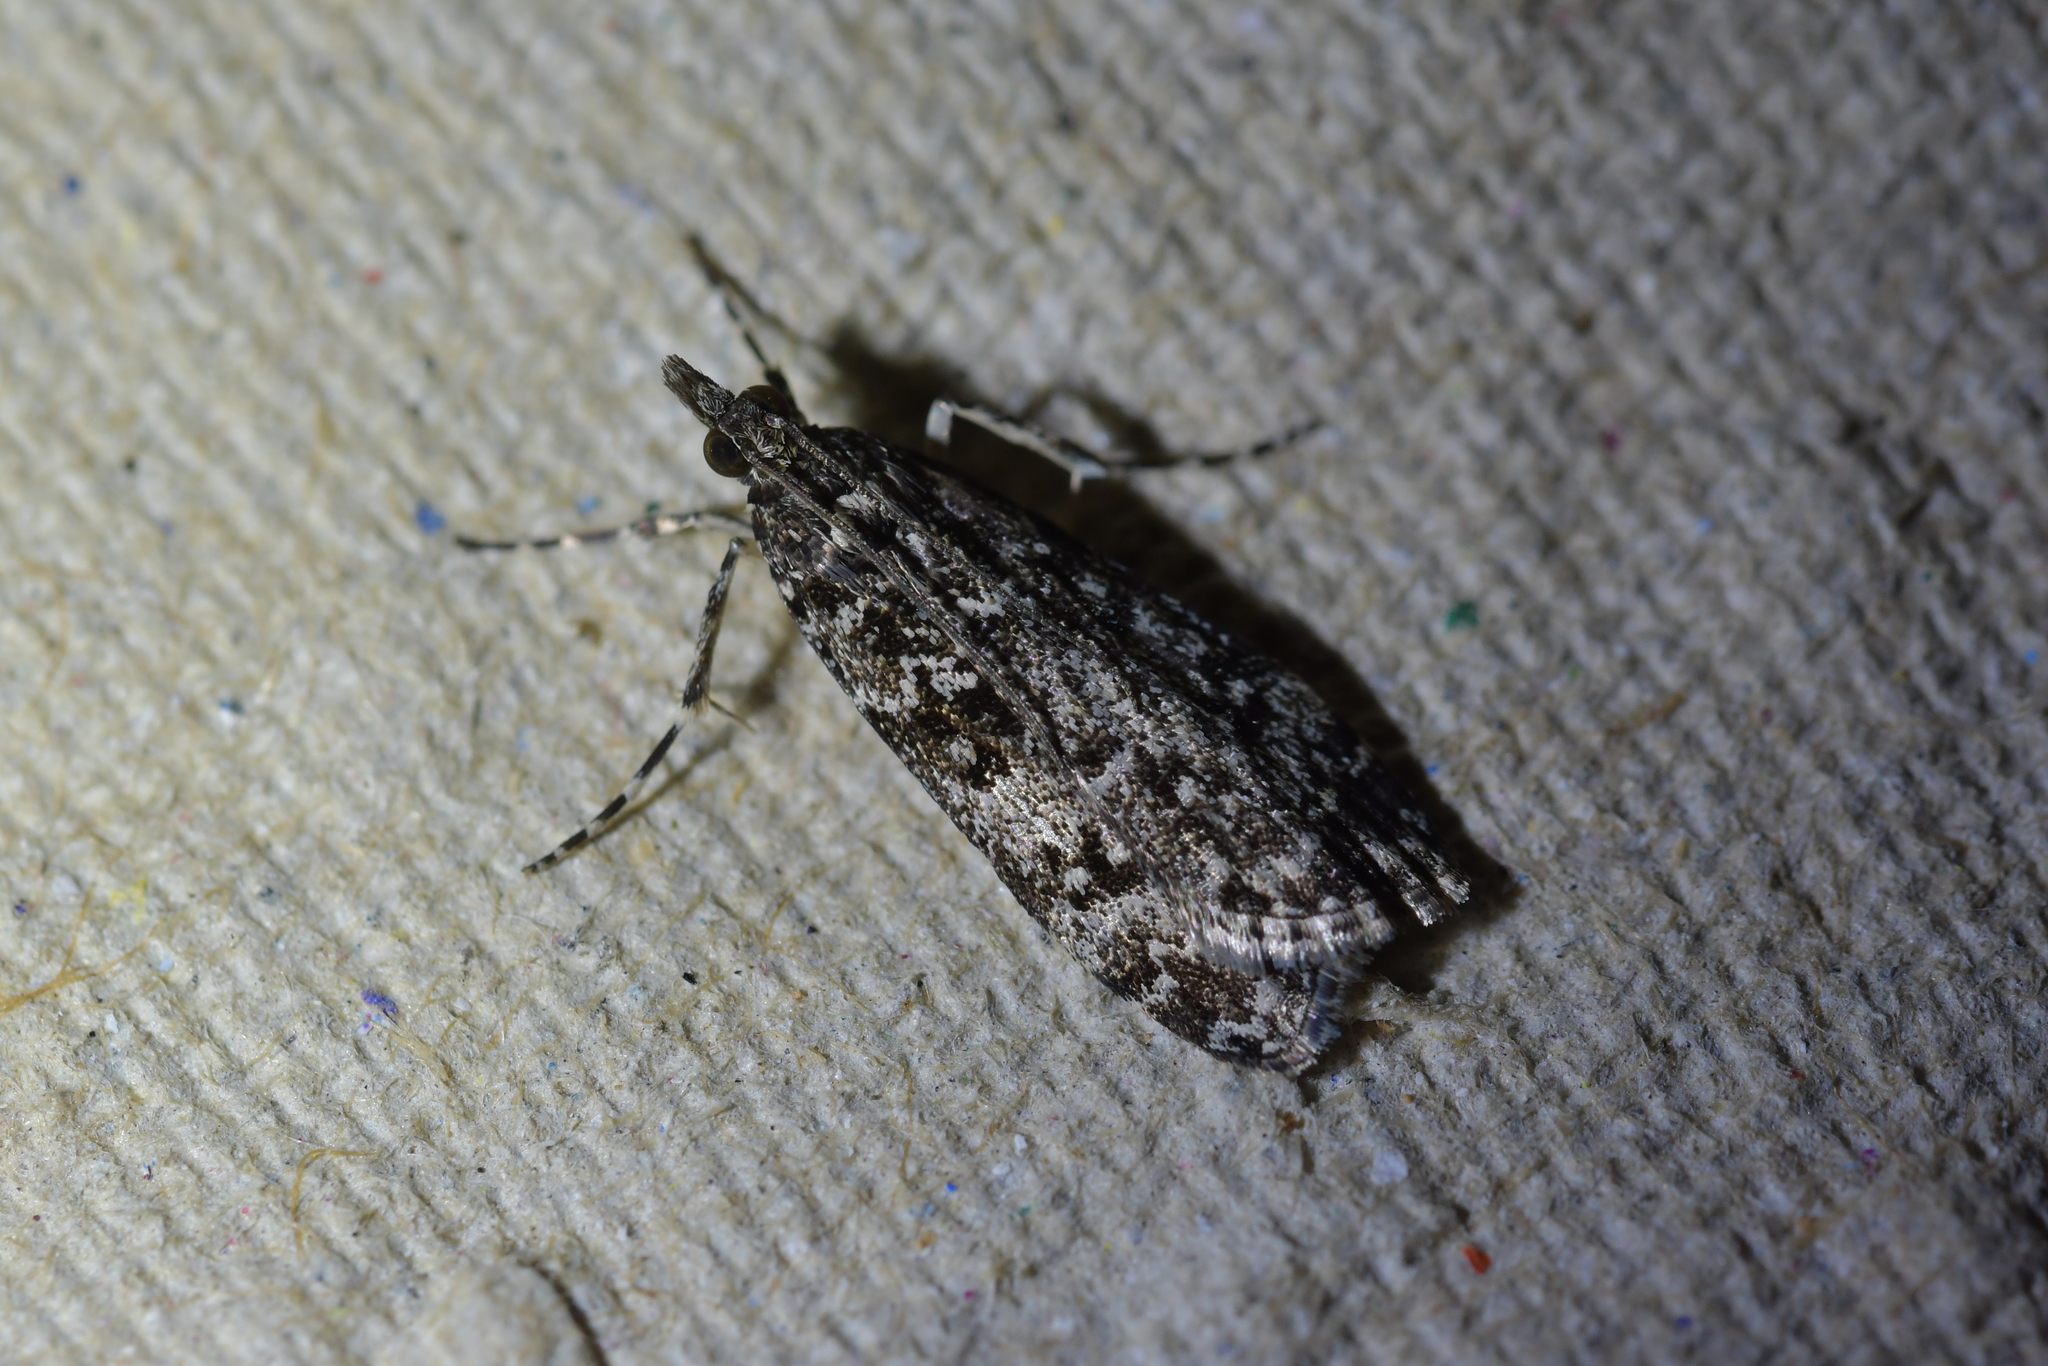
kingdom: Animalia
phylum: Arthropoda
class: Insecta
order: Lepidoptera
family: Crambidae
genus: Eudonia
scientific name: Eudonia philerga
